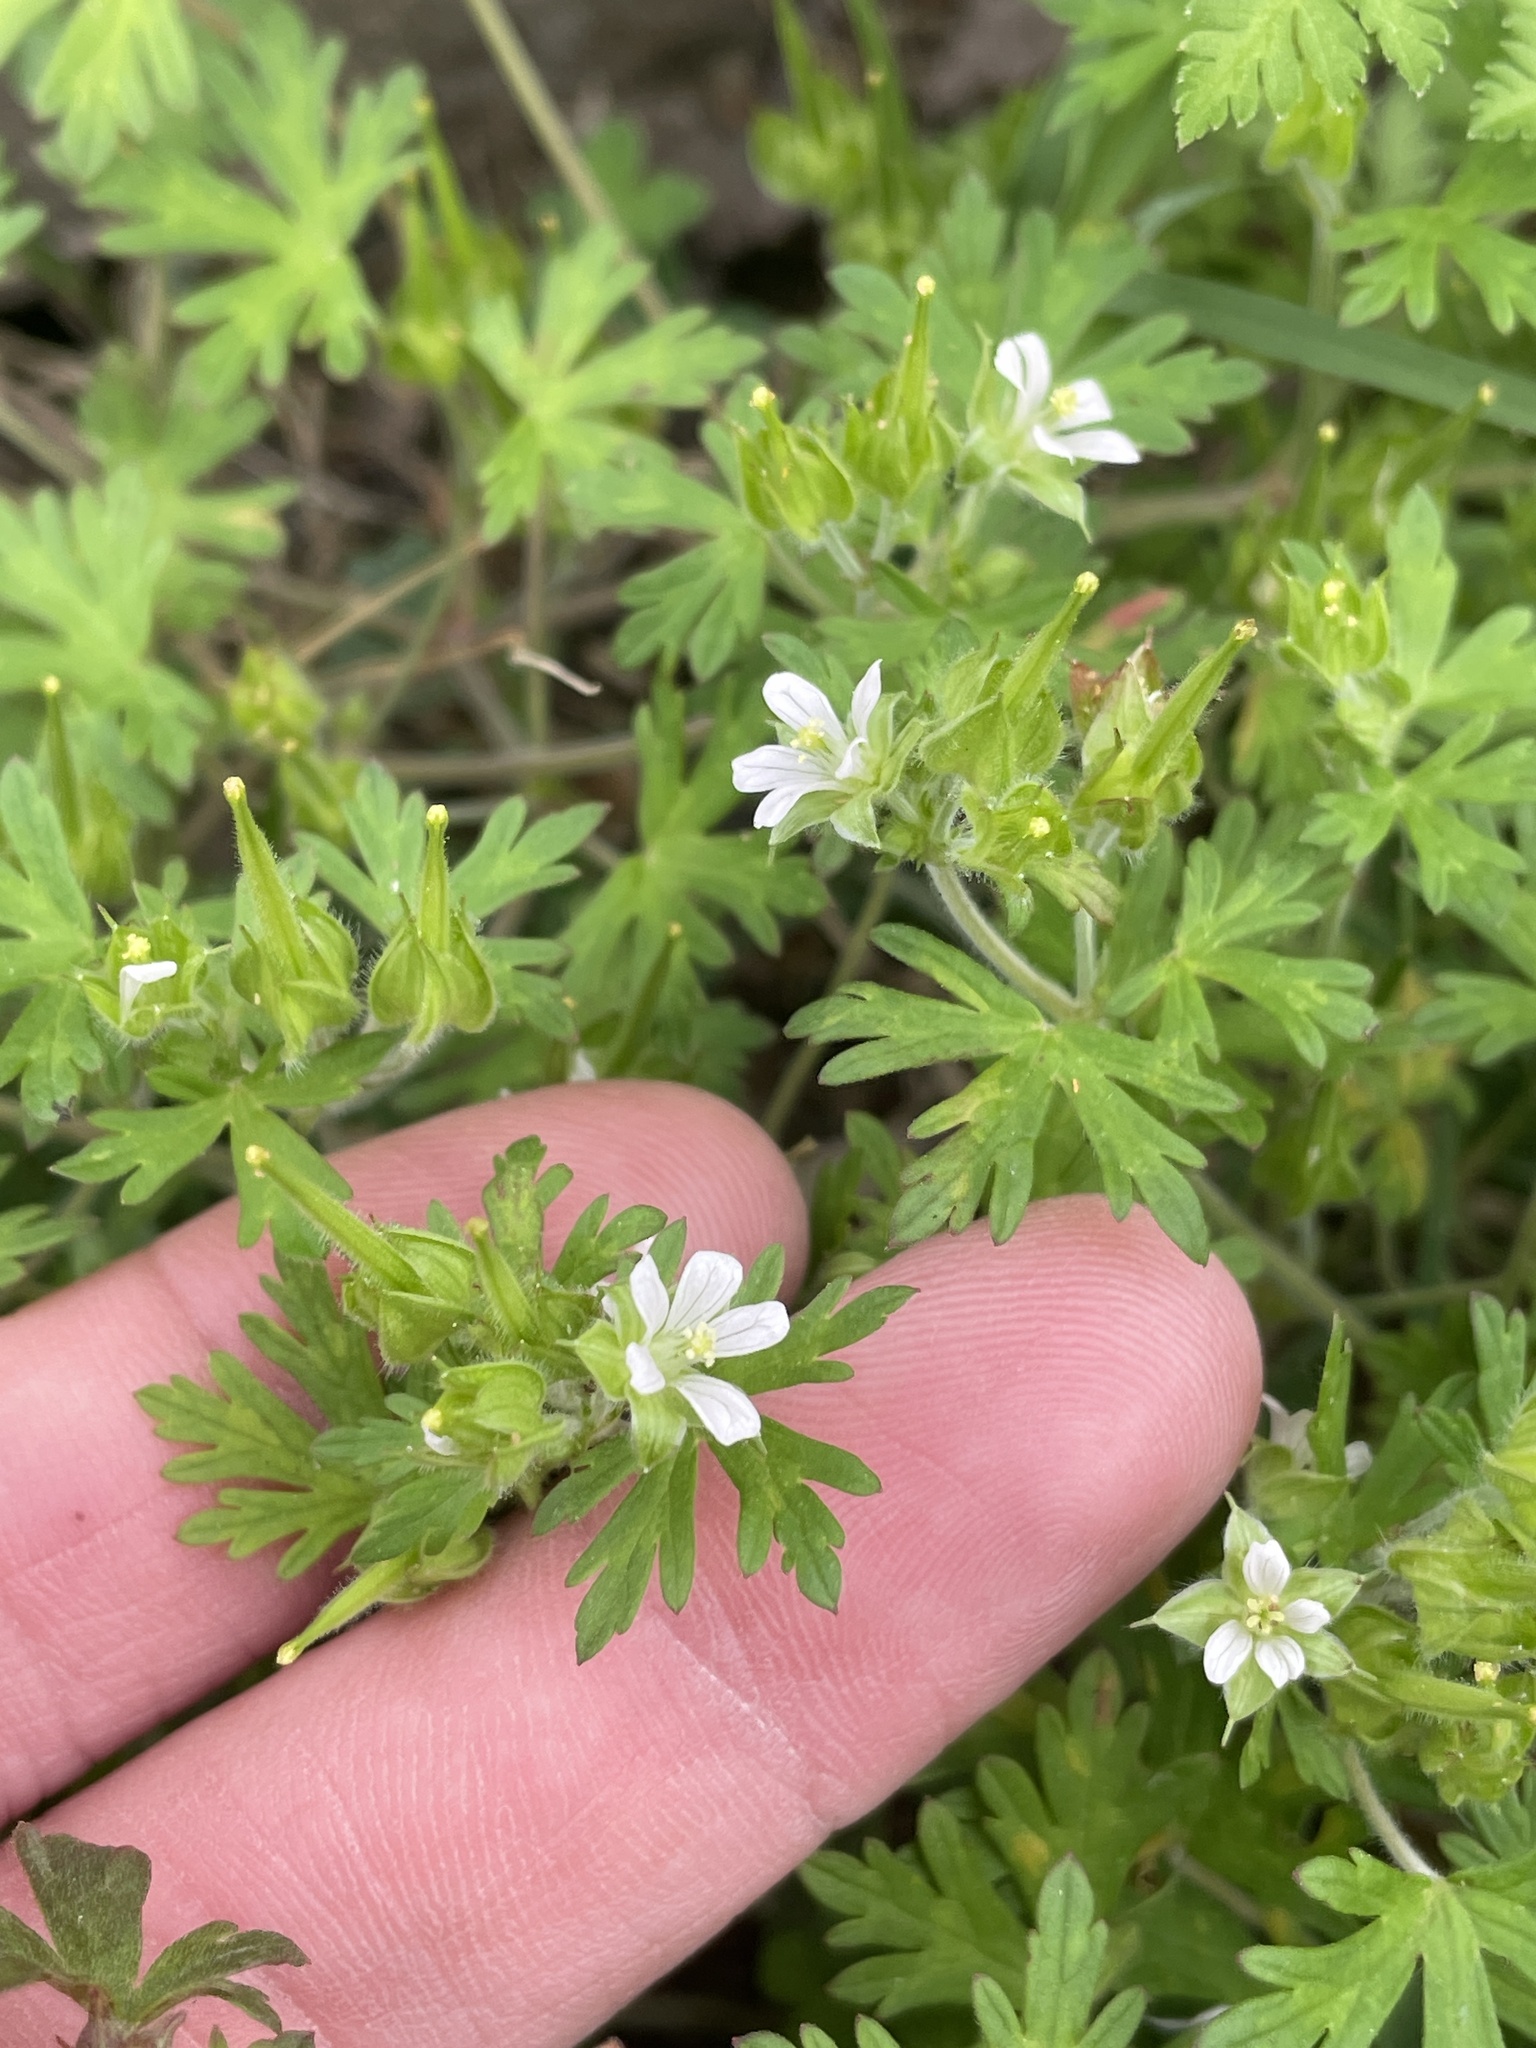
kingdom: Plantae
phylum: Tracheophyta
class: Magnoliopsida
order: Geraniales
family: Geraniaceae
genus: Geranium
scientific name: Geranium carolinianum
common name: Carolina crane's-bill
